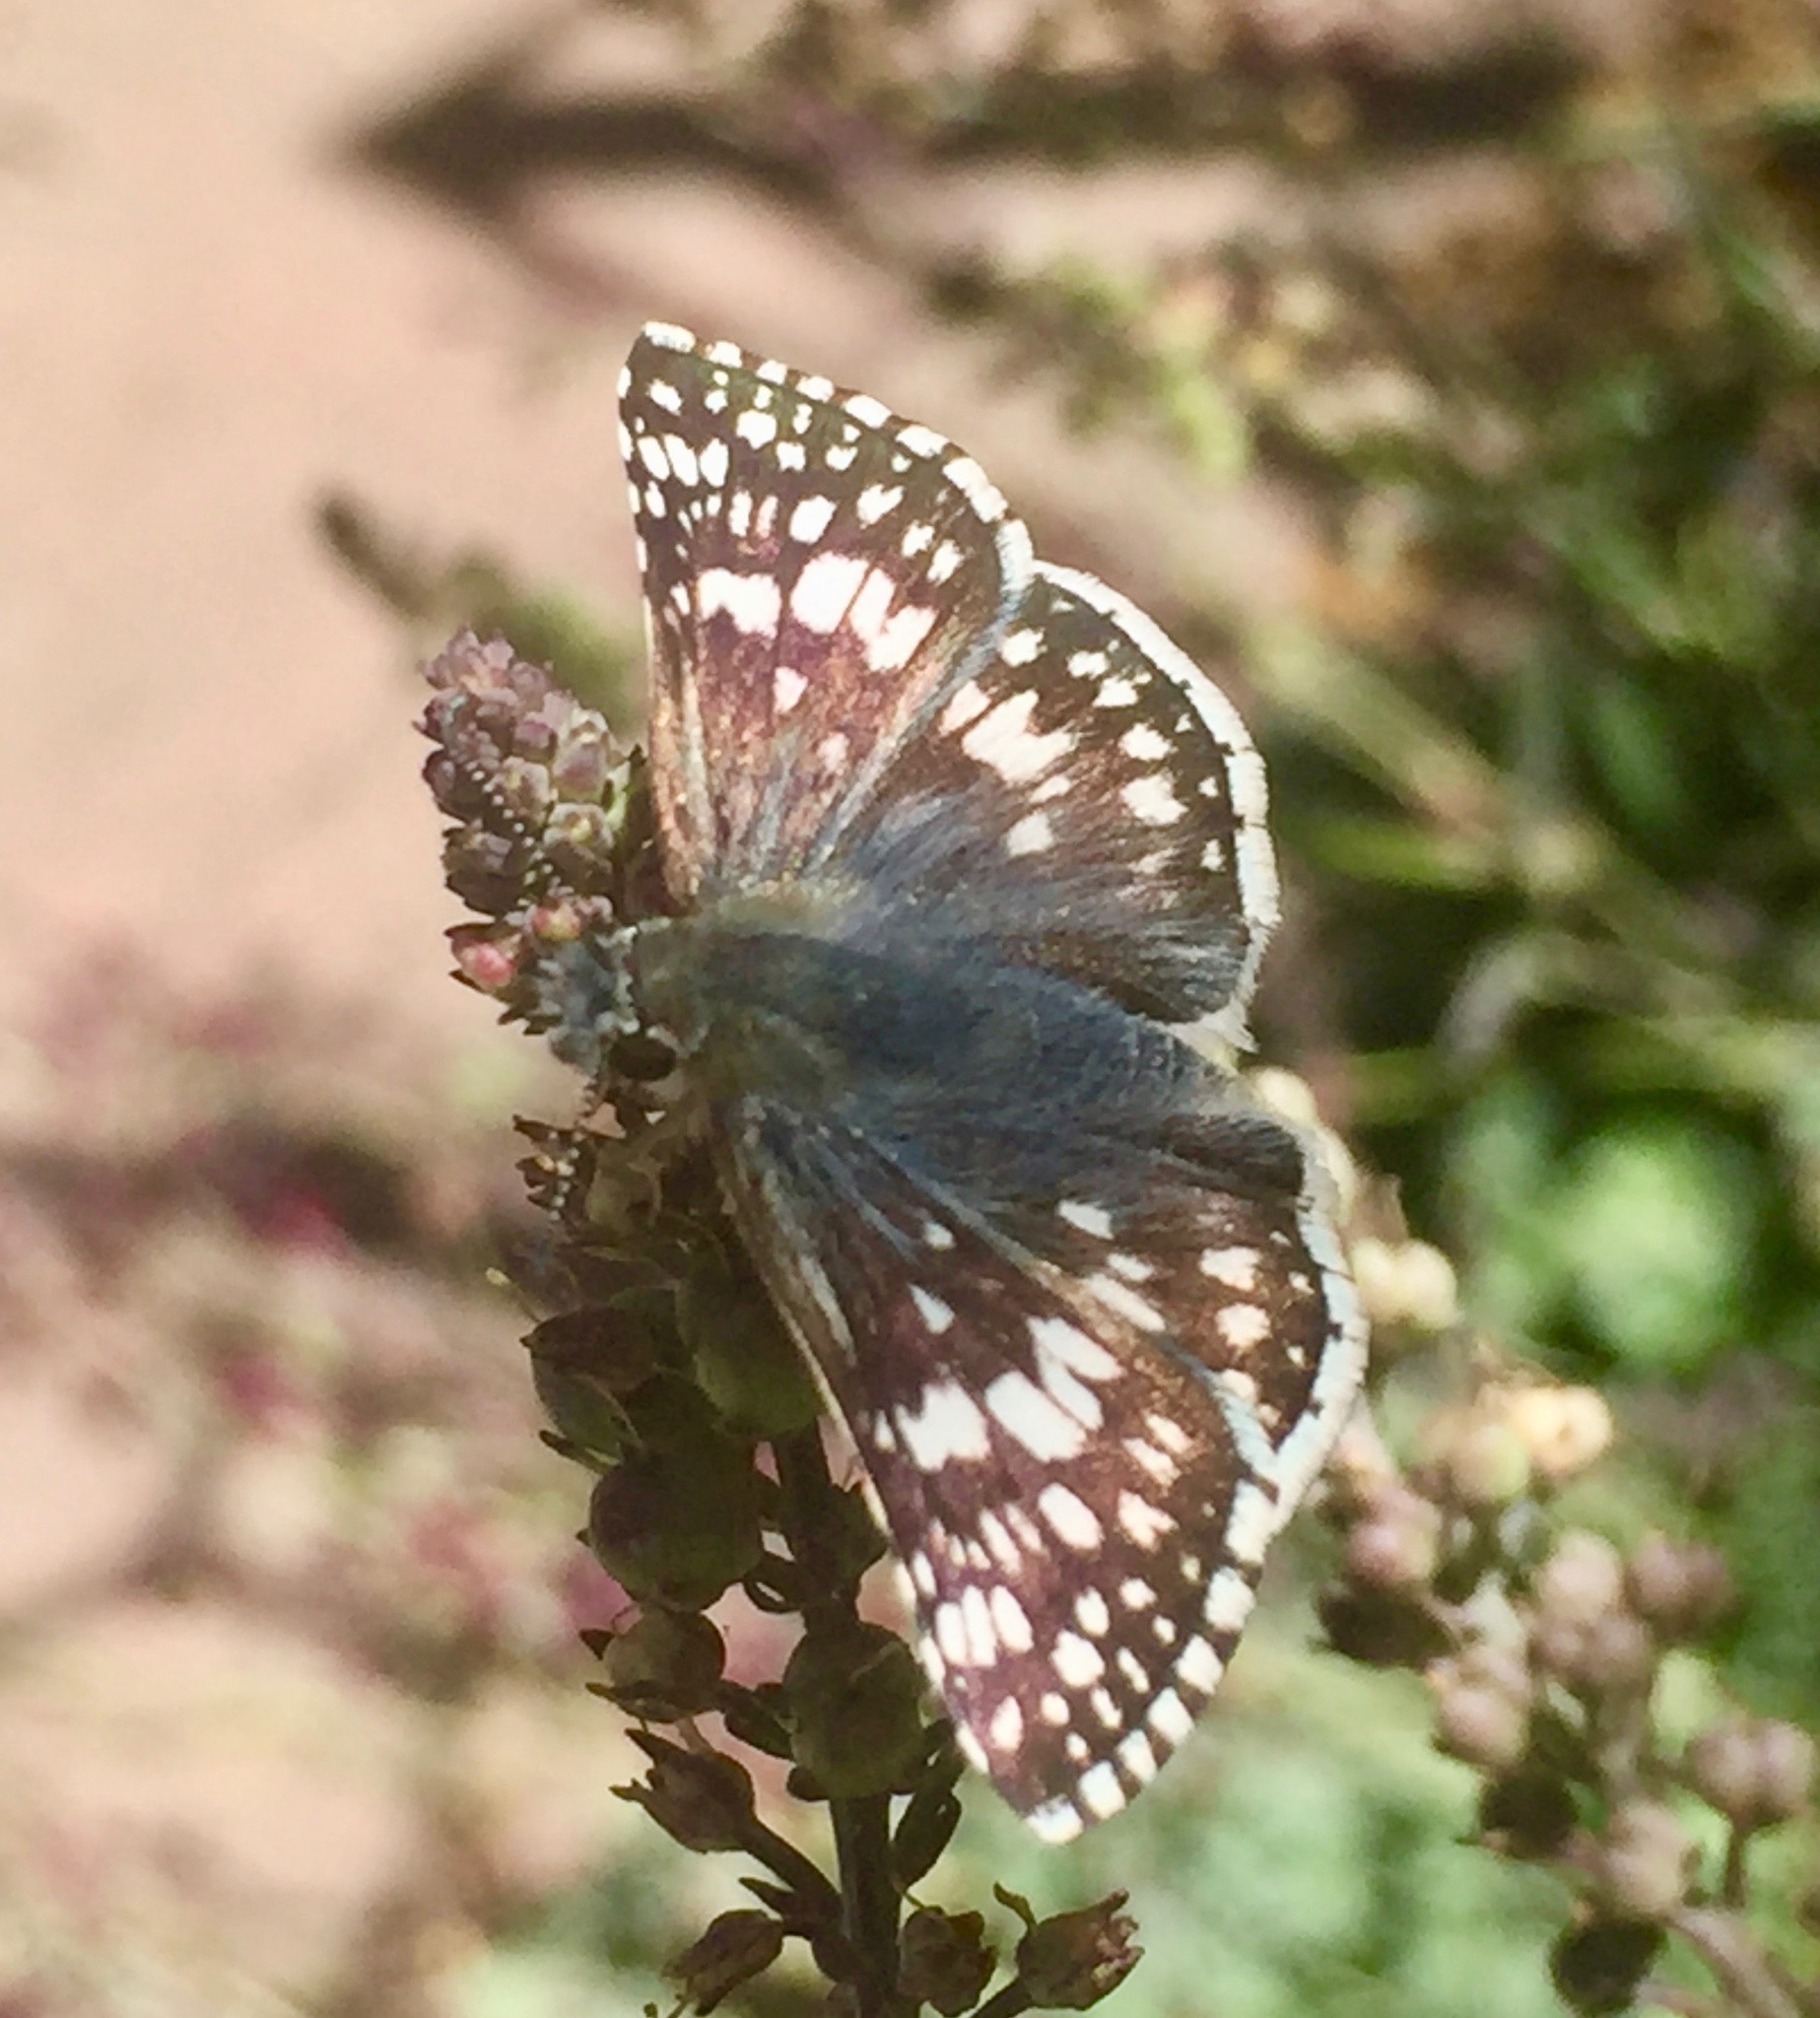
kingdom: Animalia
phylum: Arthropoda
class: Insecta
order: Lepidoptera
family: Hesperiidae
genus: Burnsius
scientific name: Burnsius communis
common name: Common checkered-skipper
